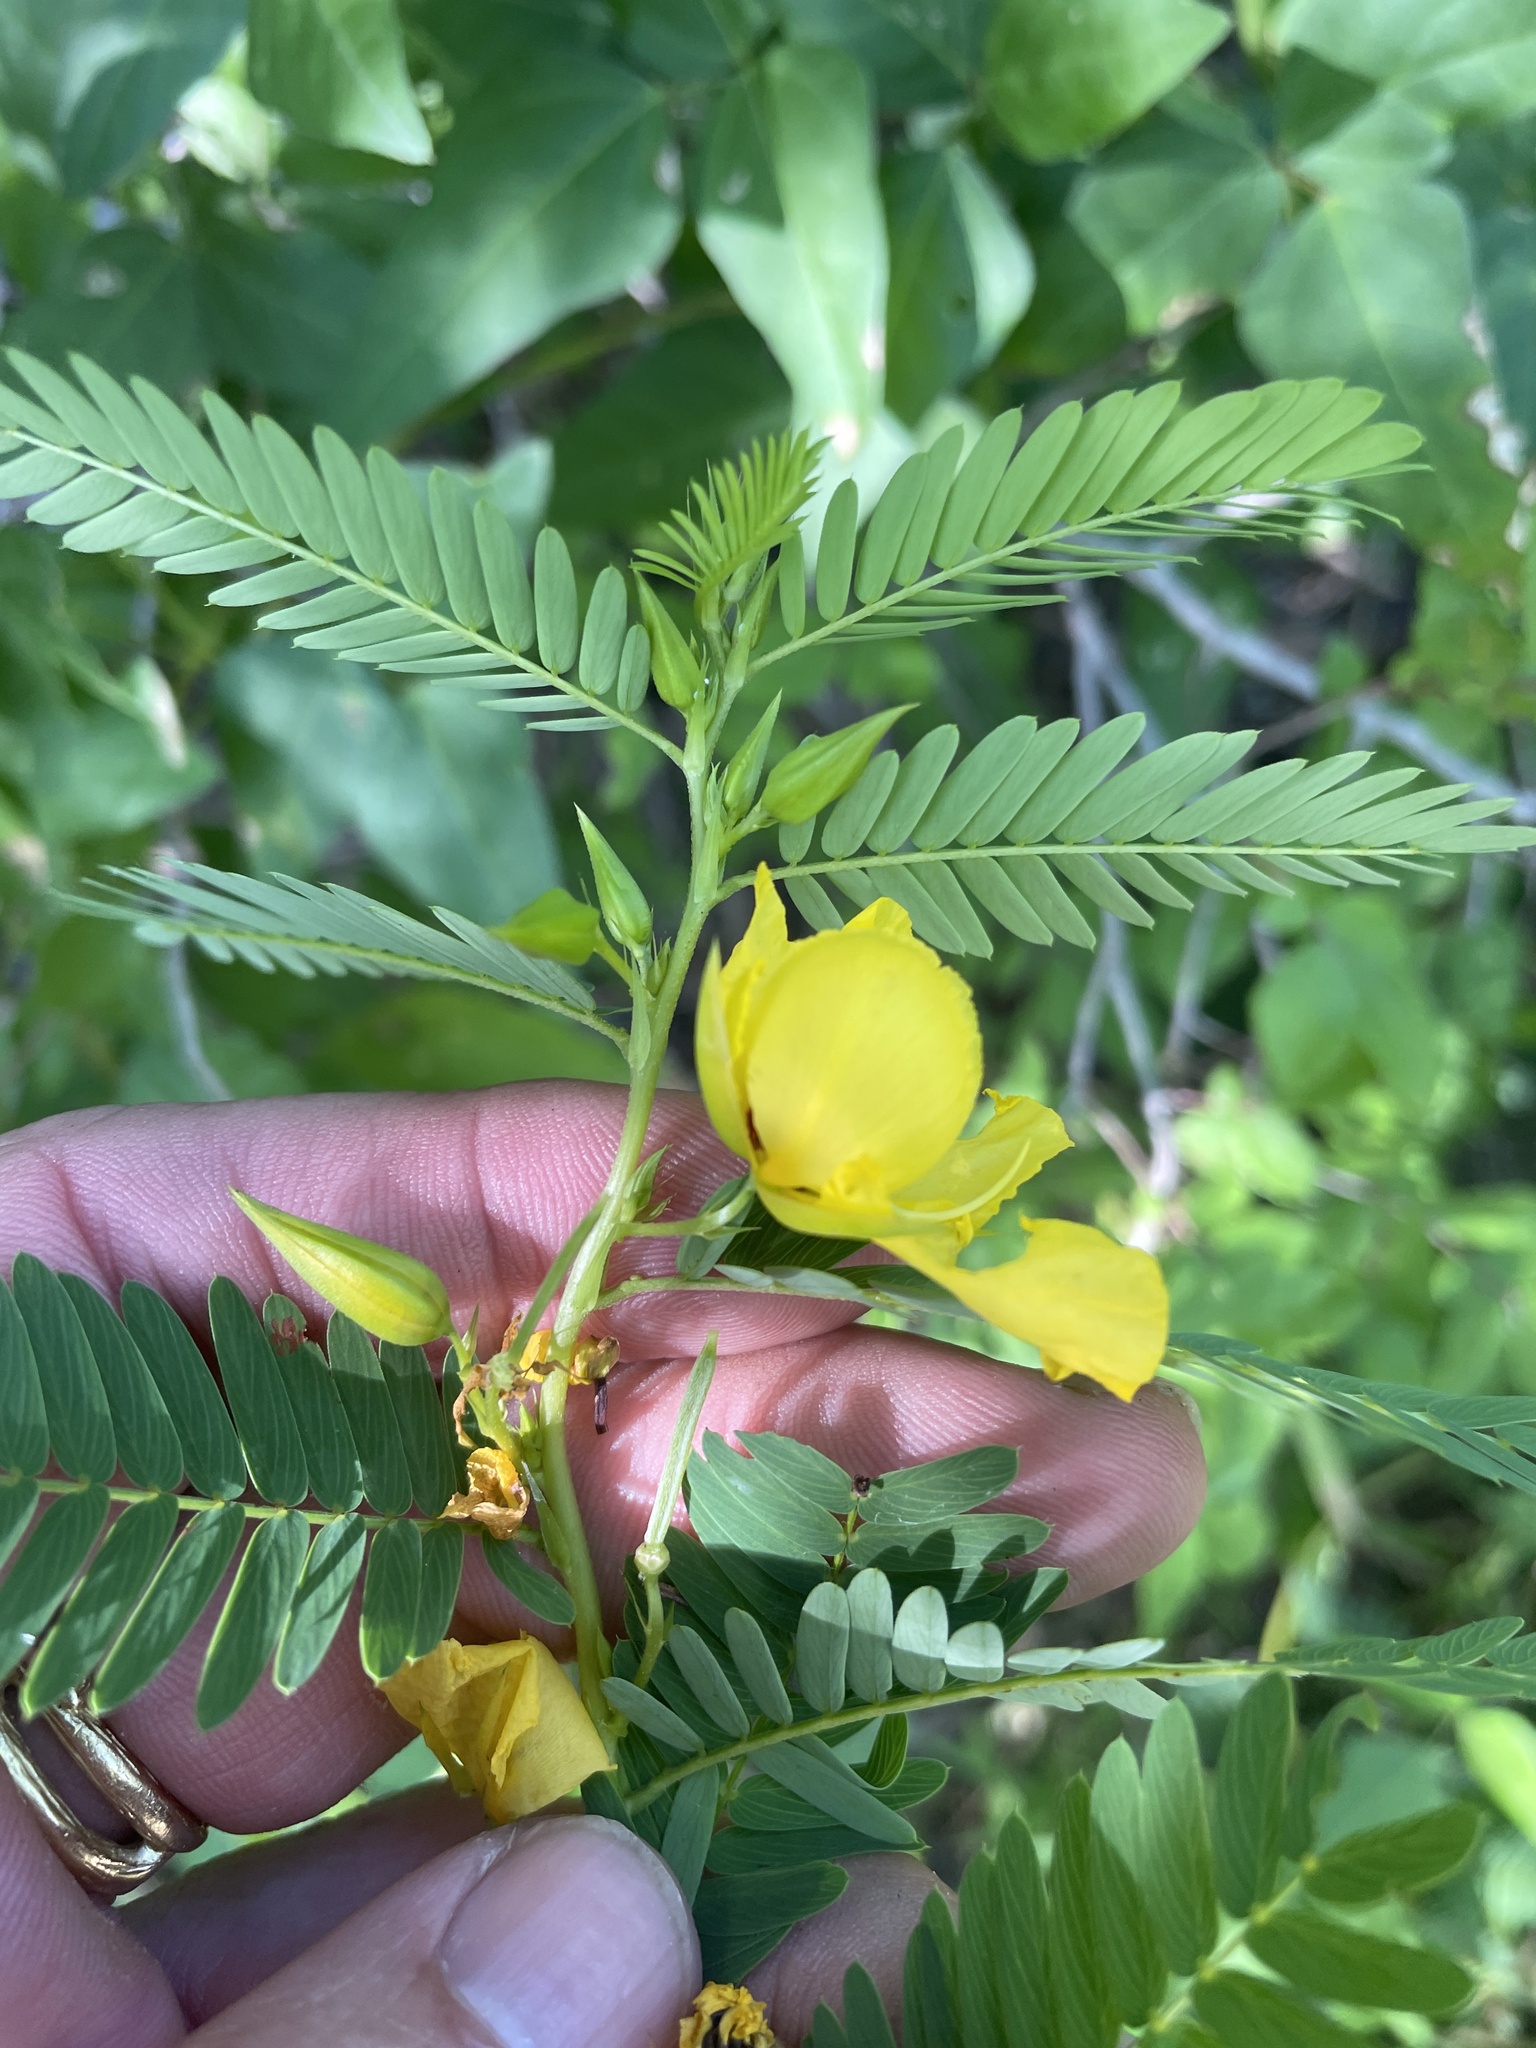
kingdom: Plantae
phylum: Tracheophyta
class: Magnoliopsida
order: Fabales
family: Fabaceae
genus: Chamaecrista
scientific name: Chamaecrista fasciculata
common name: Golden cassia
